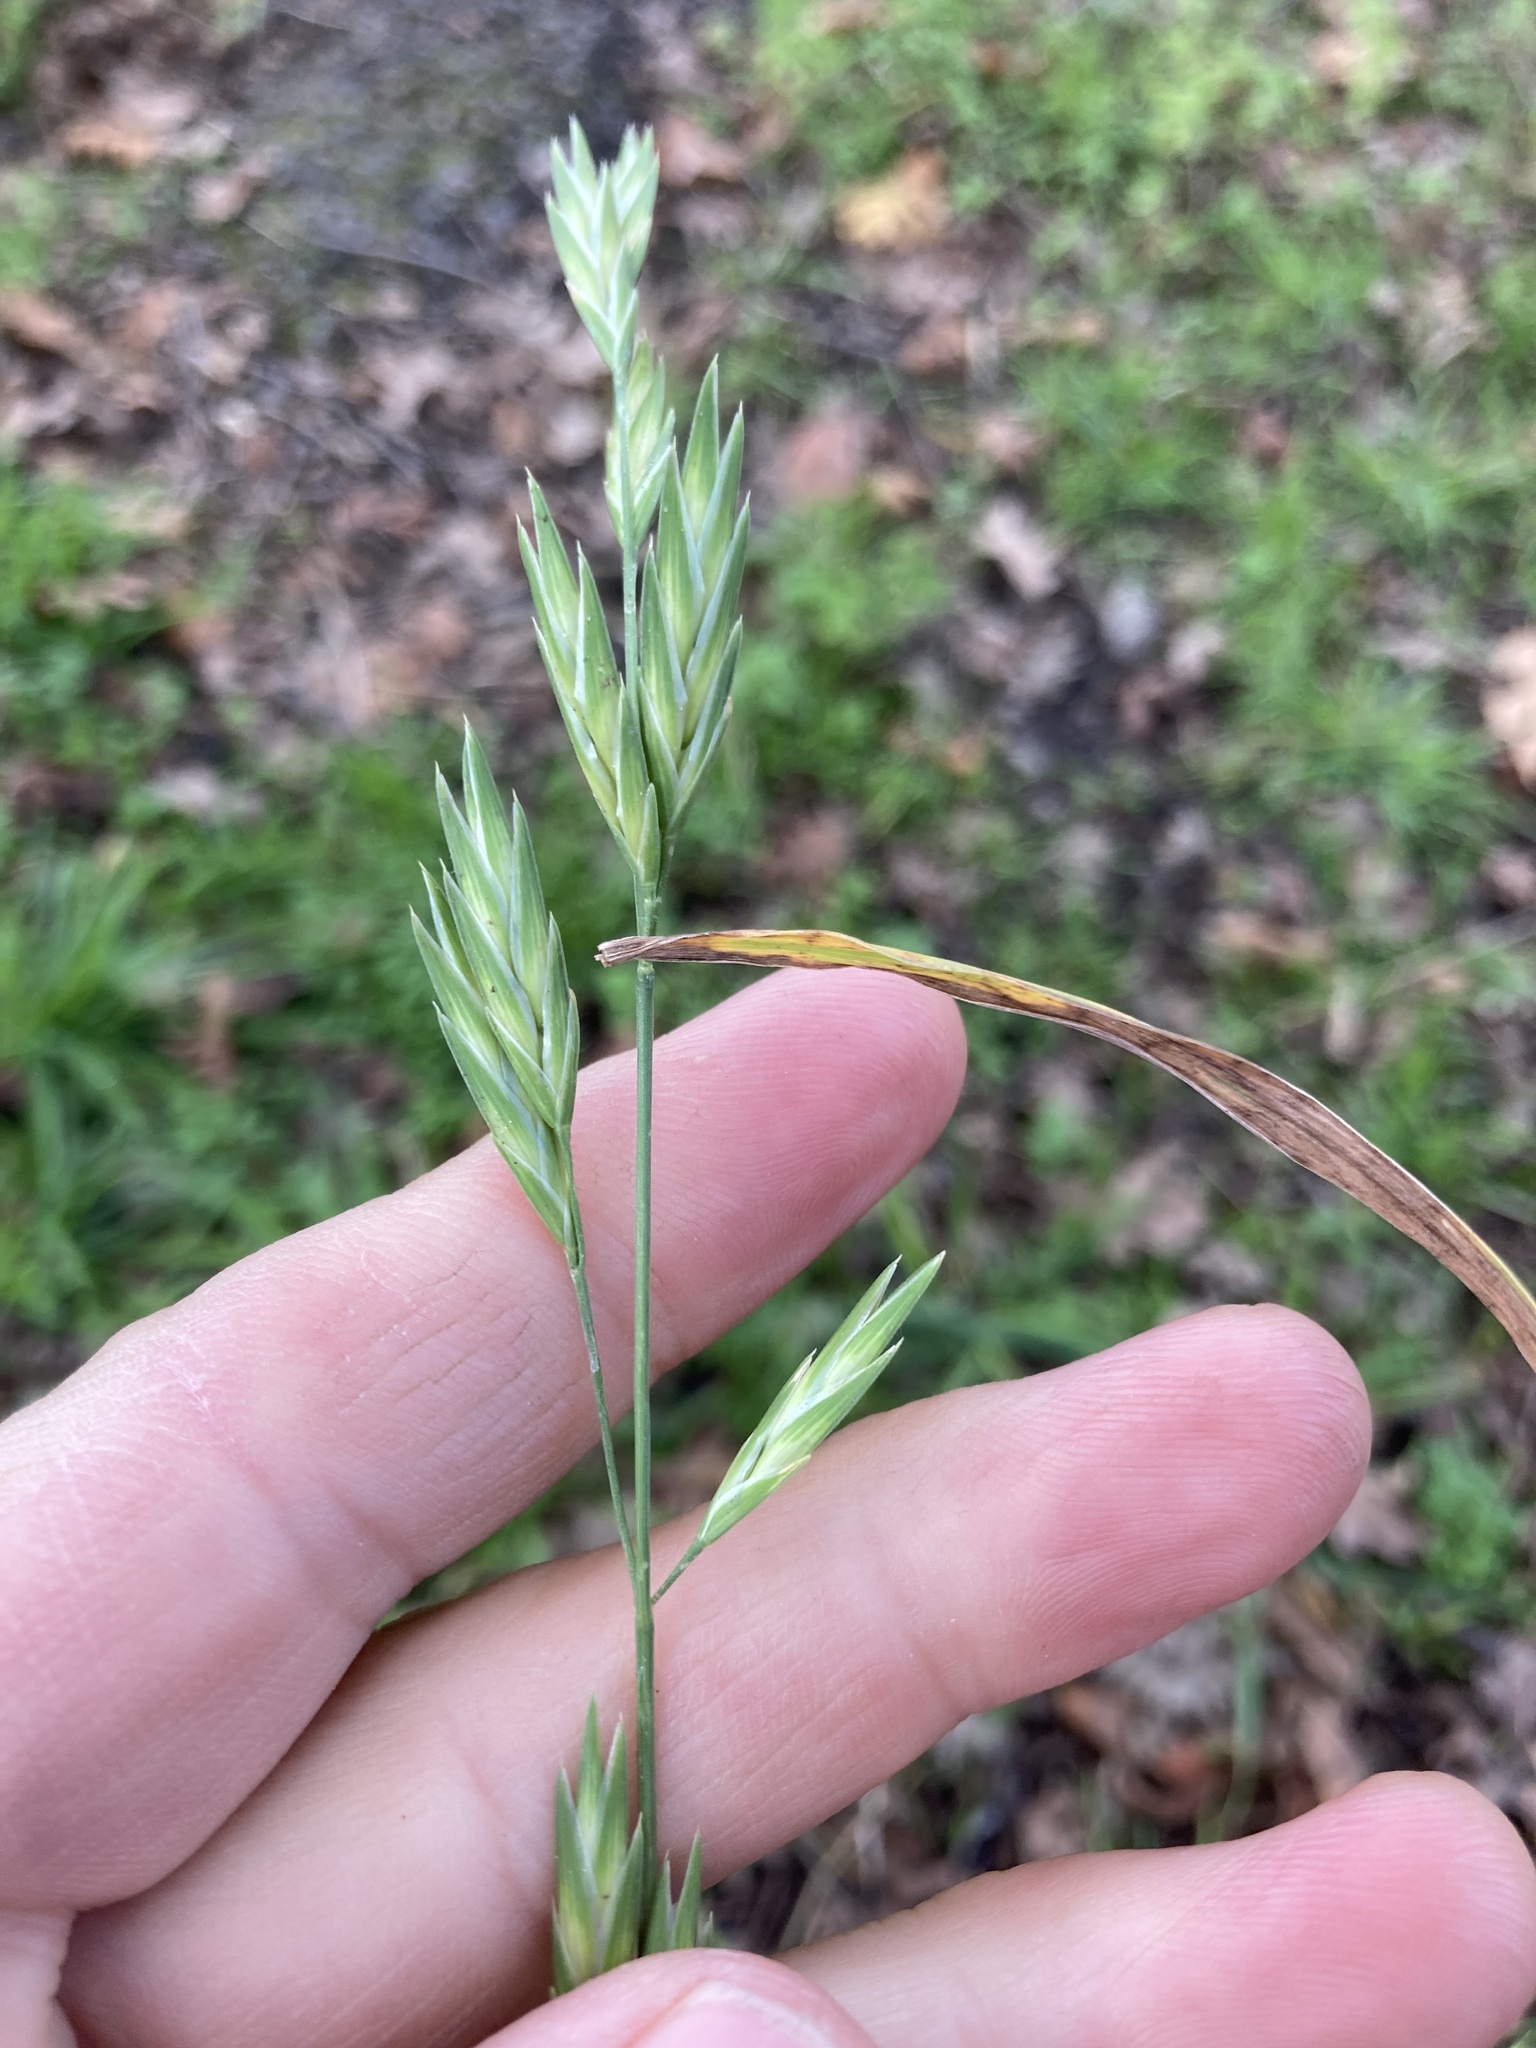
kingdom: Plantae
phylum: Tracheophyta
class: Liliopsida
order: Poales
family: Poaceae
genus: Bromus
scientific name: Bromus catharticus
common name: Rescuegrass
